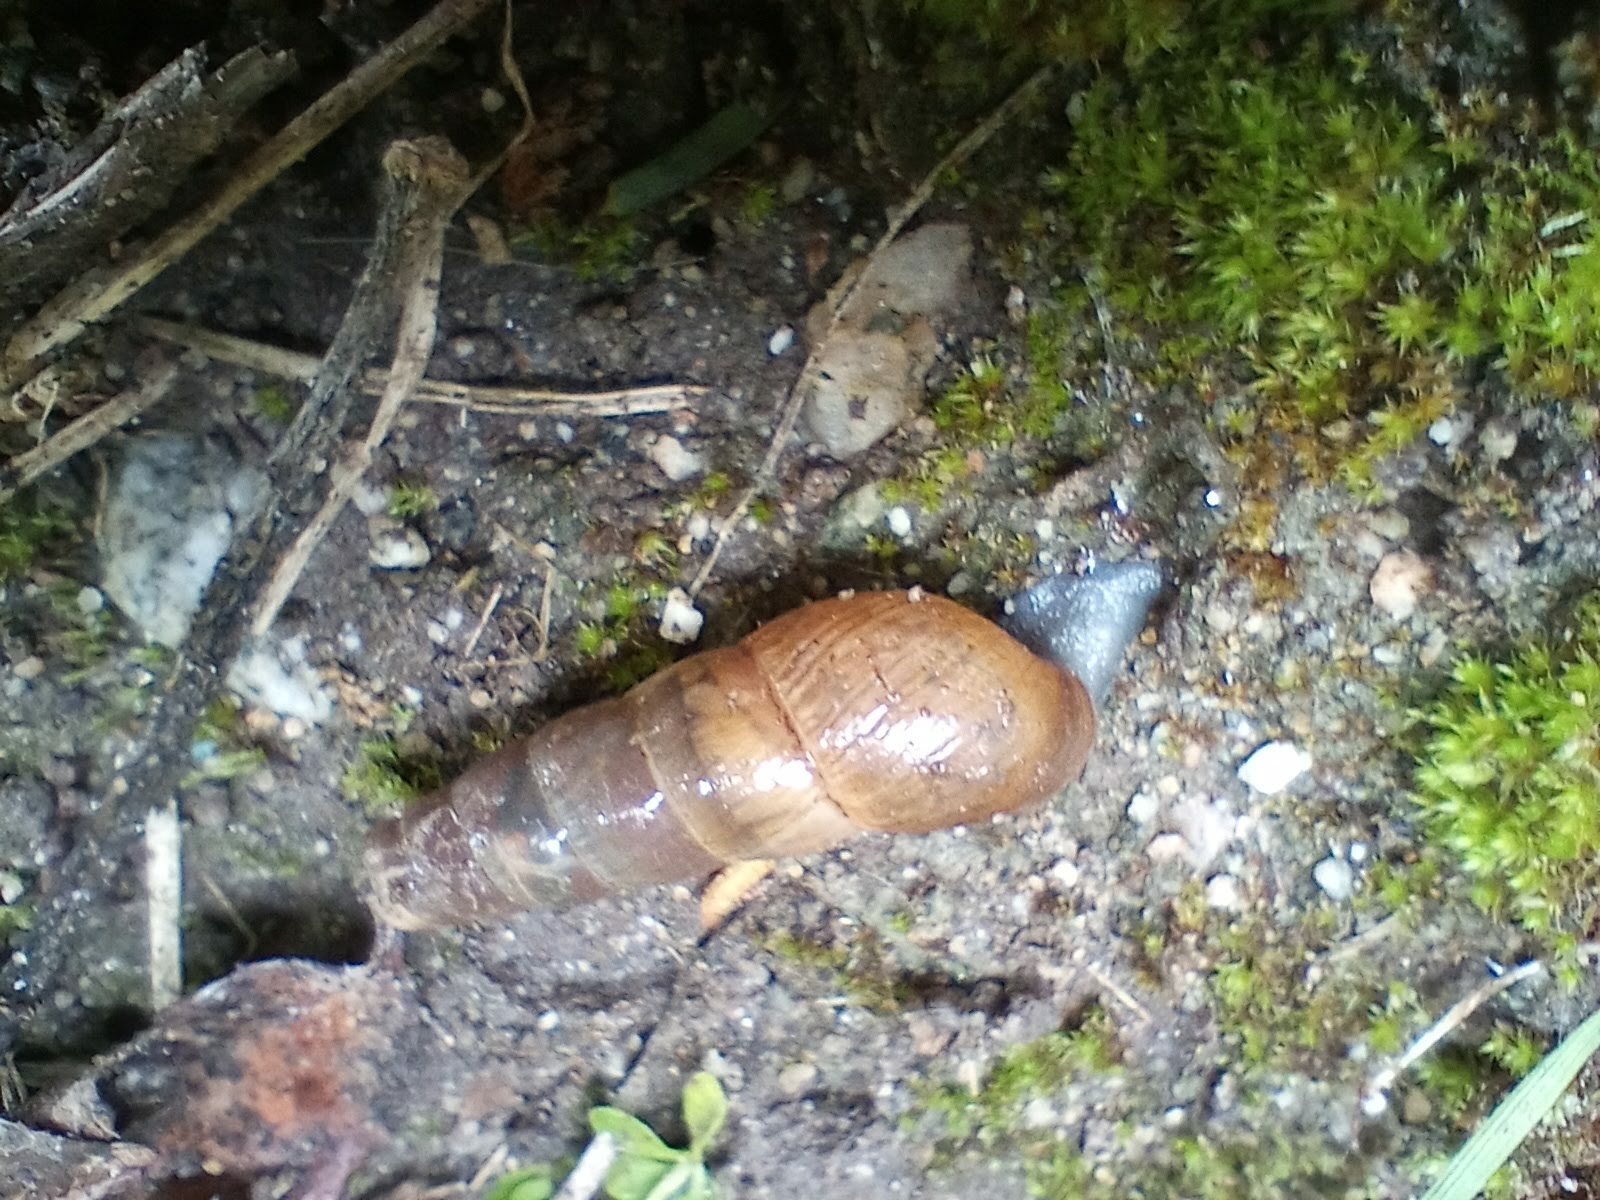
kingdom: Animalia
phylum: Mollusca
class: Gastropoda
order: Stylommatophora
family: Achatinidae
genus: Rumina
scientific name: Rumina decollata
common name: Decollate snail
